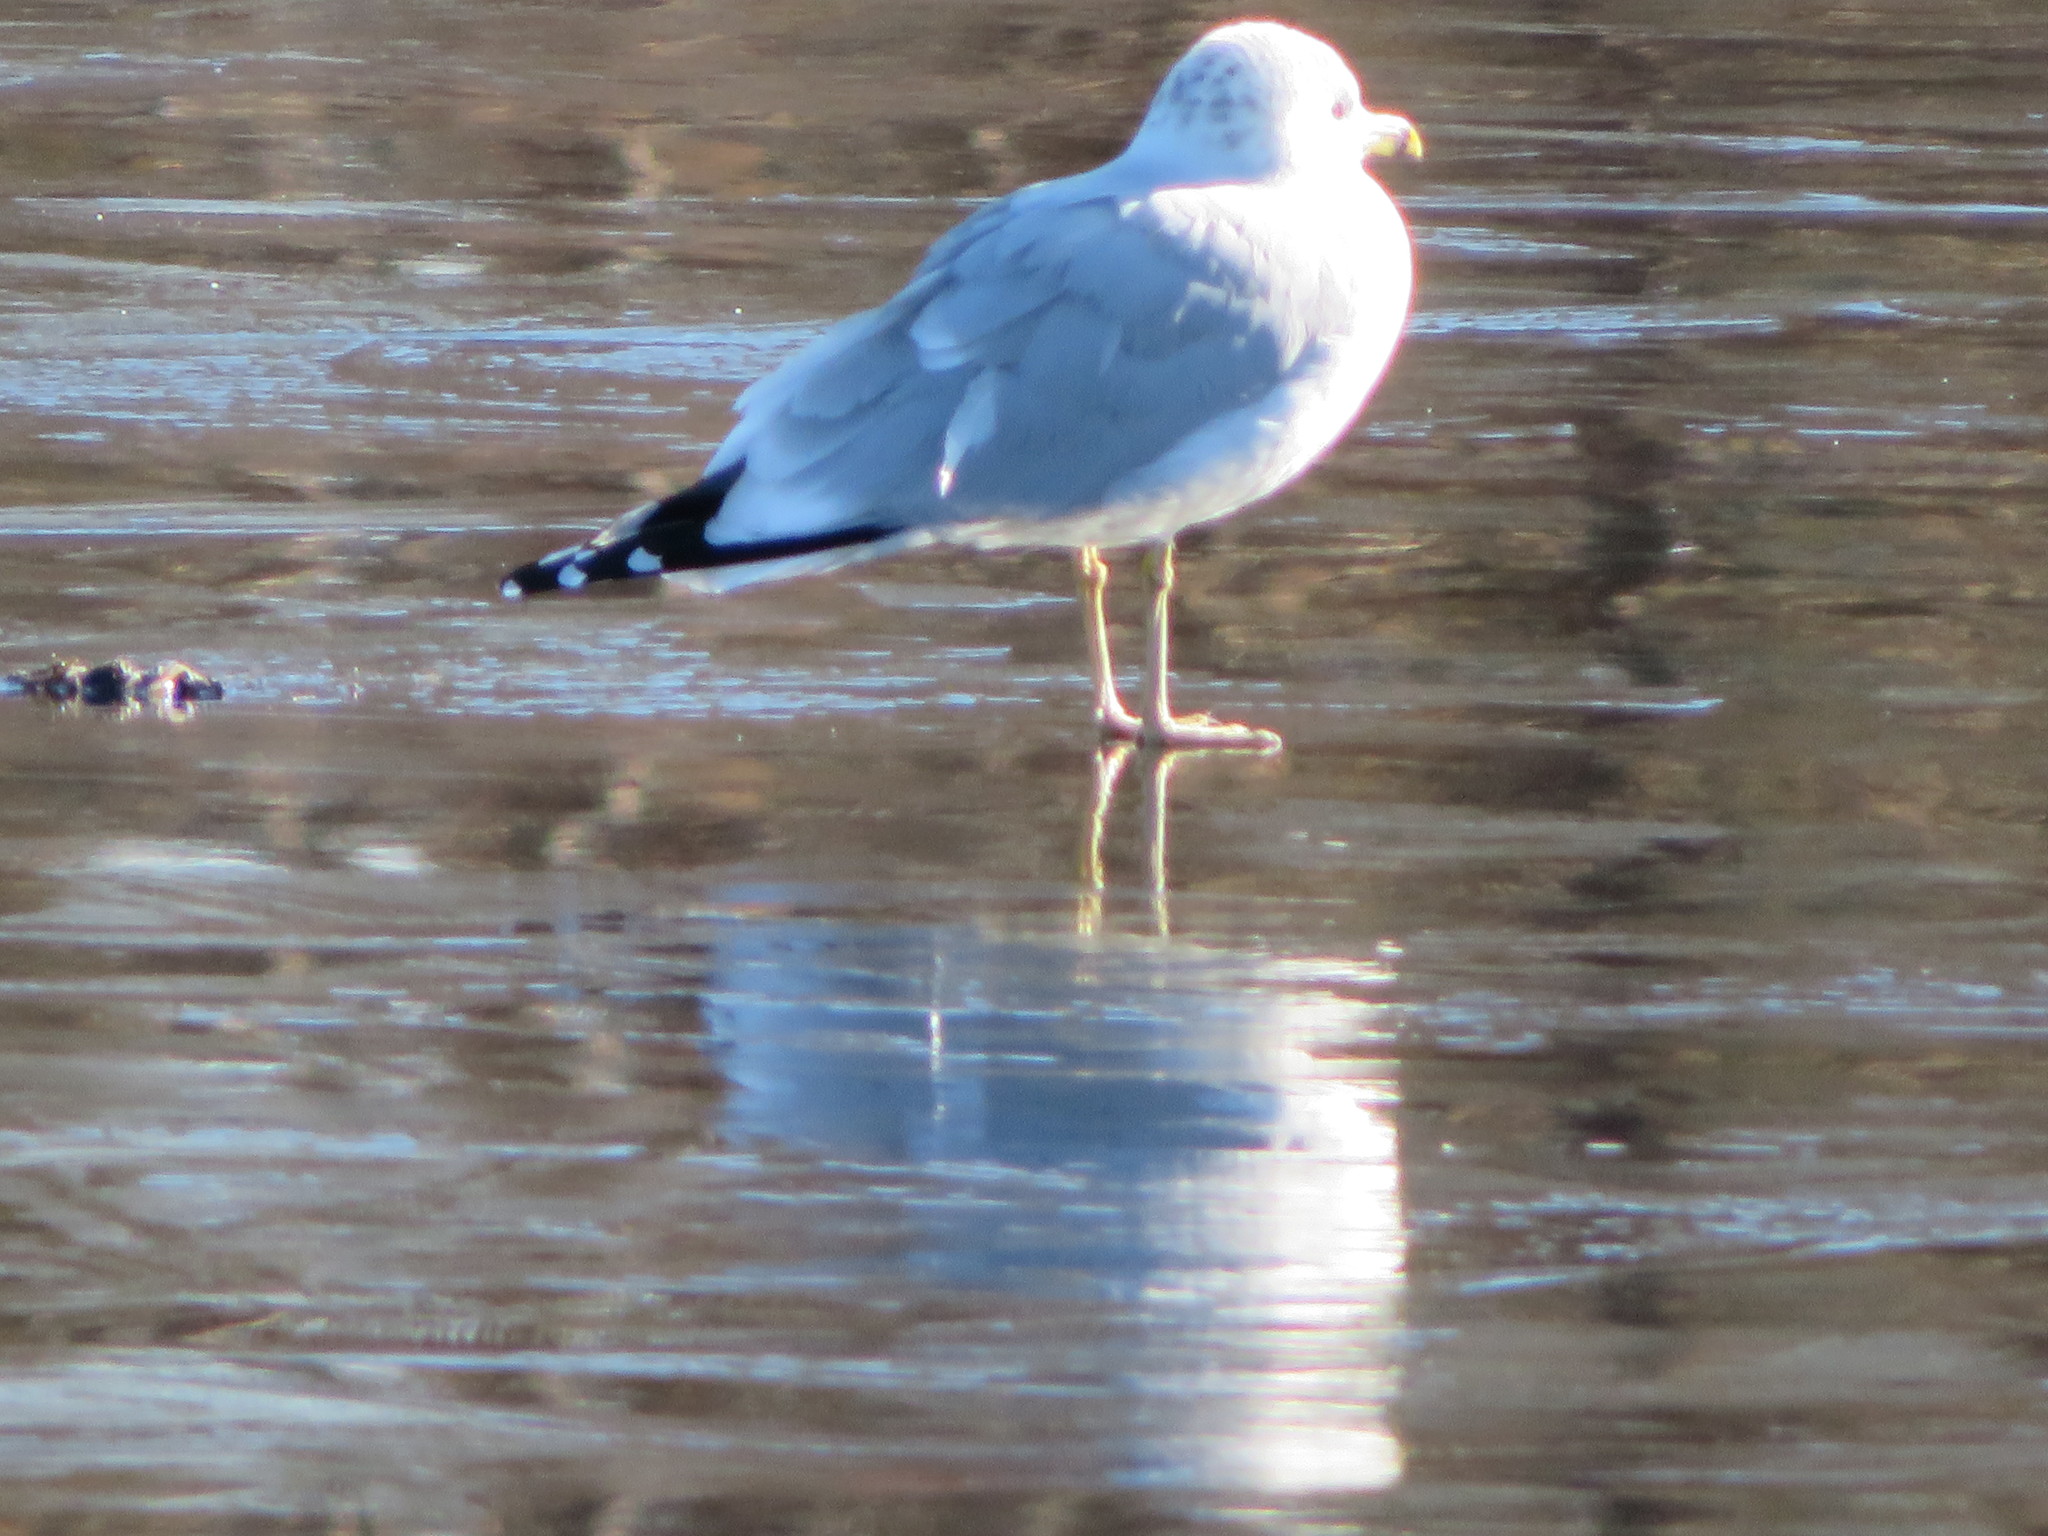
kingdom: Animalia
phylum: Chordata
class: Aves
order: Charadriiformes
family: Laridae
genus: Larus
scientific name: Larus delawarensis
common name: Ring-billed gull
